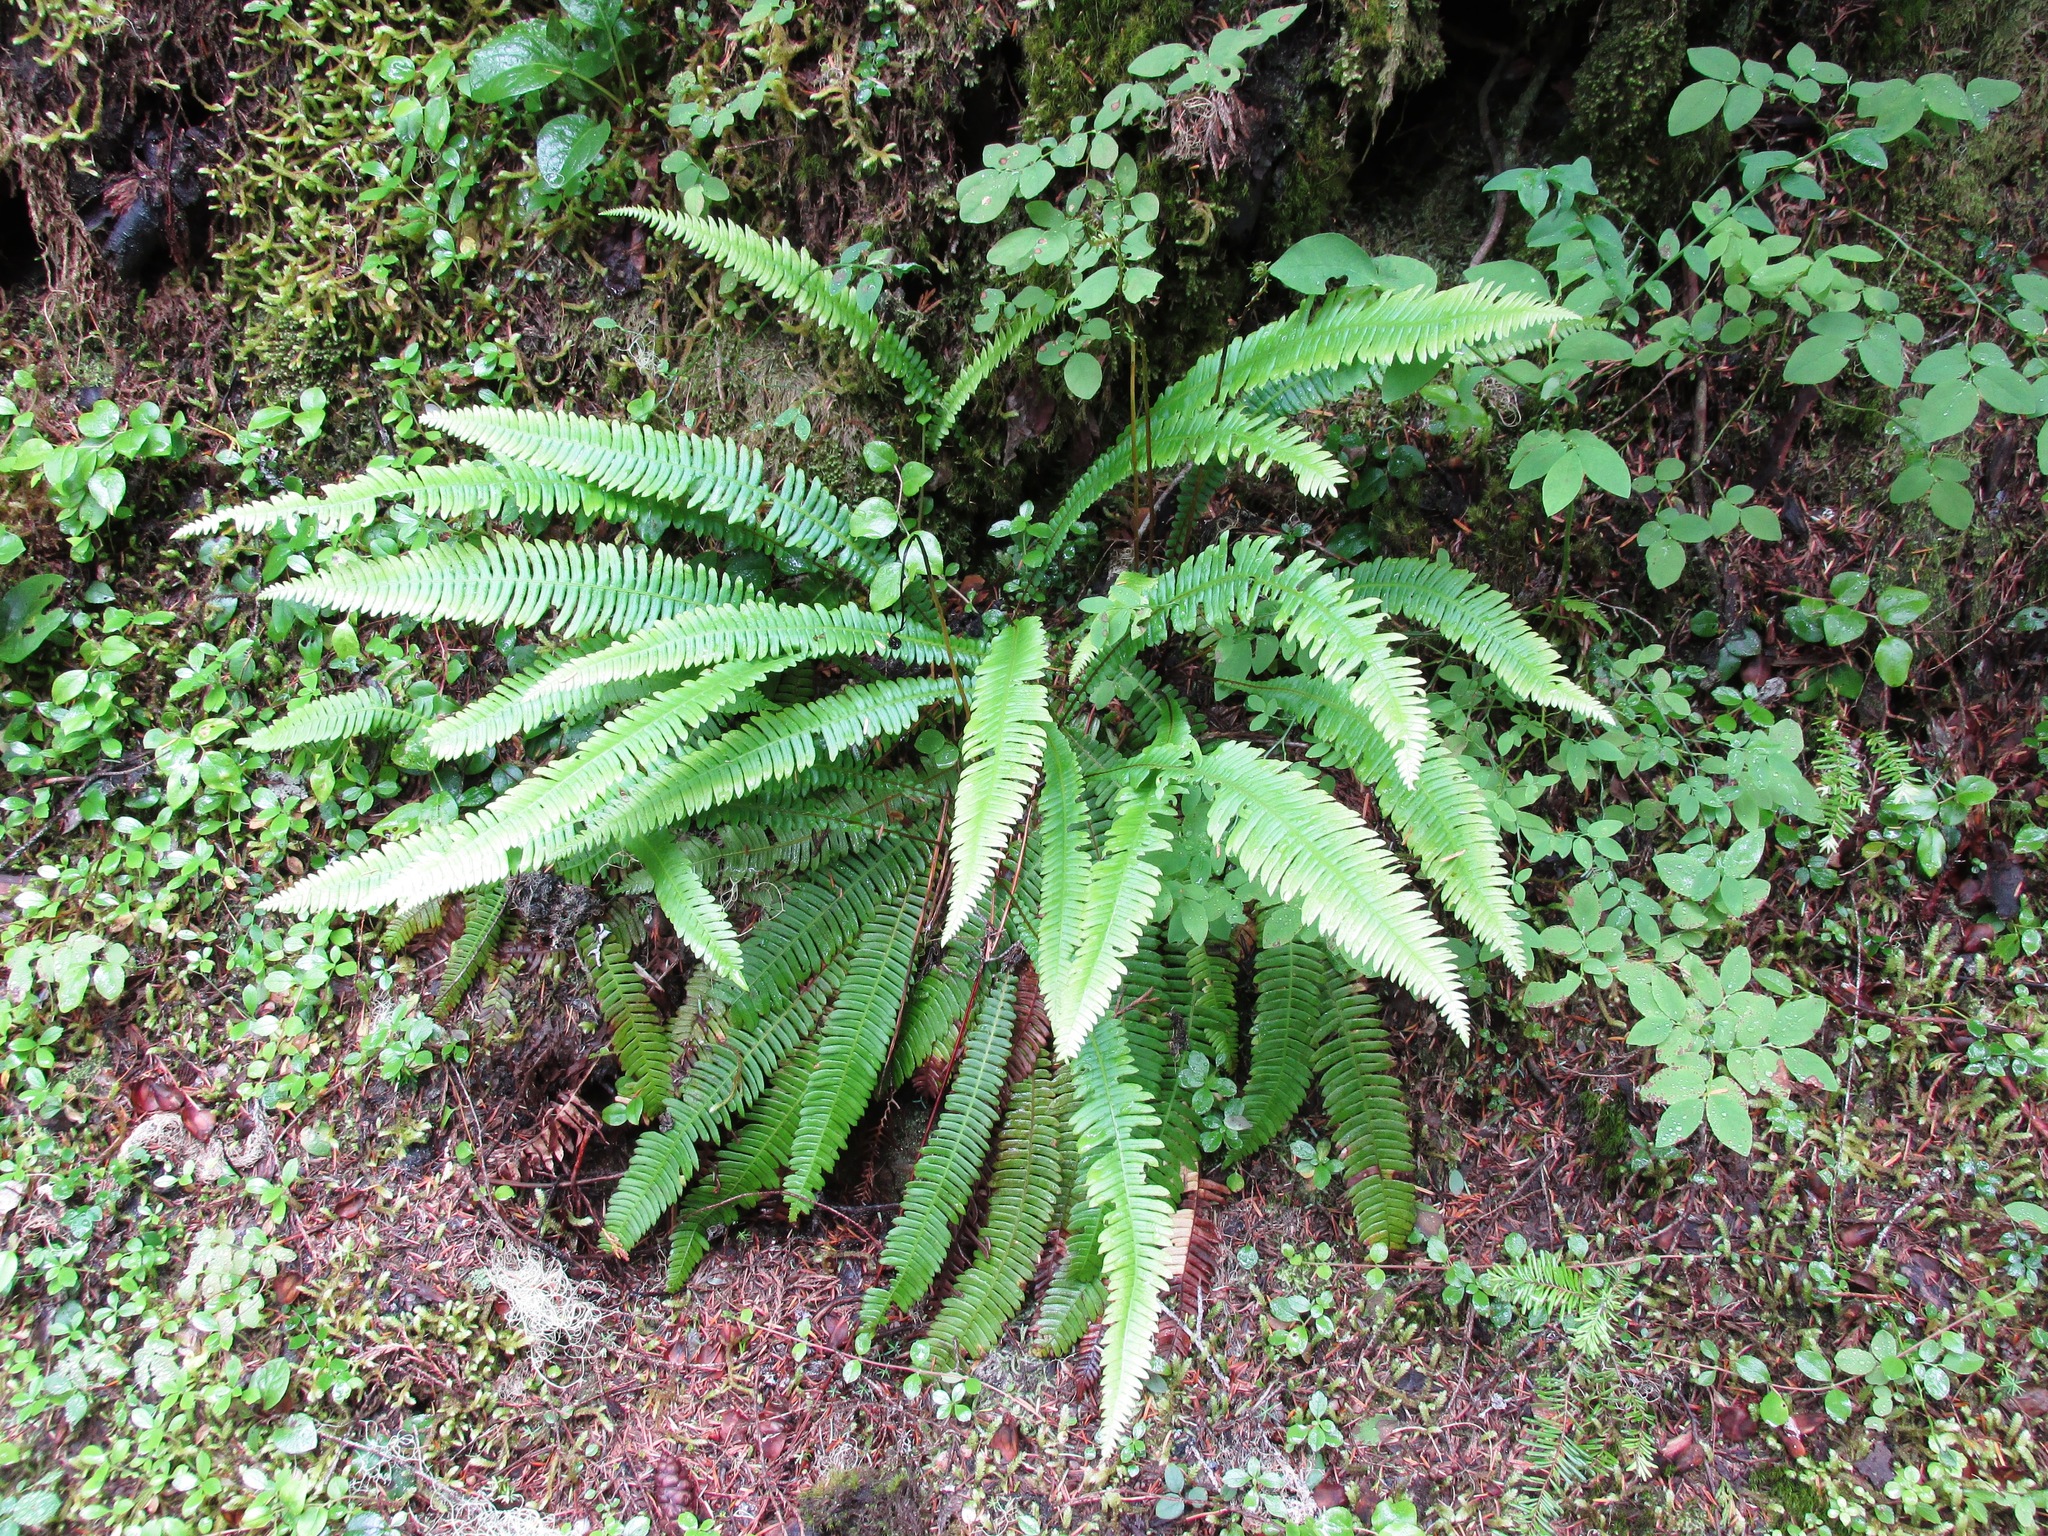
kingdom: Plantae
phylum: Tracheophyta
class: Polypodiopsida
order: Polypodiales
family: Blechnaceae
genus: Struthiopteris
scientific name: Struthiopteris spicant
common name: Deer fern
